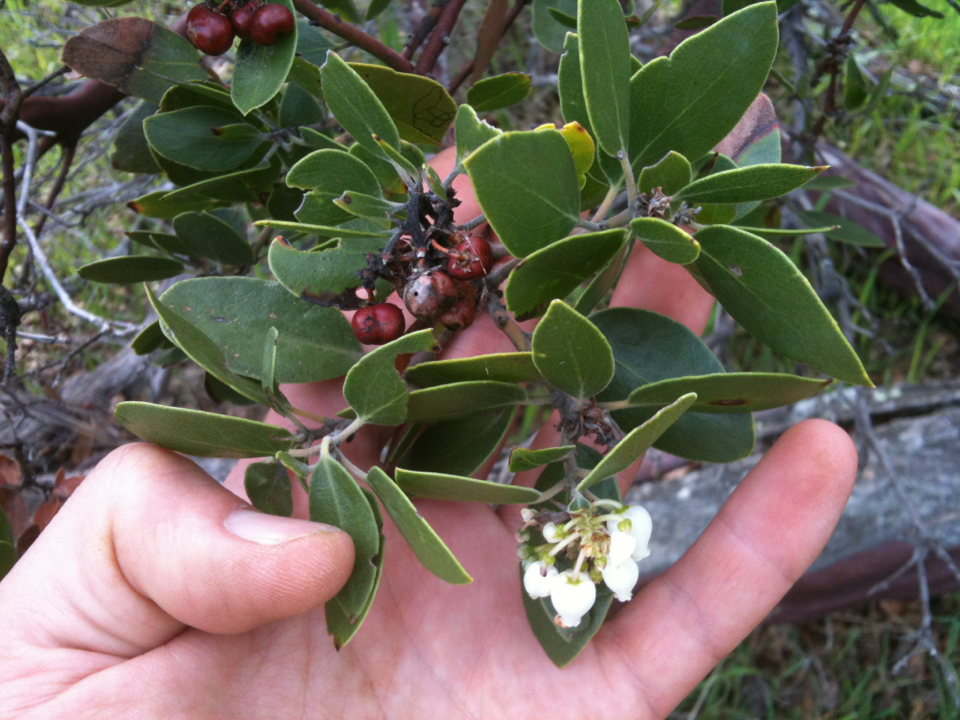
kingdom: Plantae
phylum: Tracheophyta
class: Magnoliopsida
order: Ericales
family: Ericaceae
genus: Arctostaphylos
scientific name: Arctostaphylos manzanita
